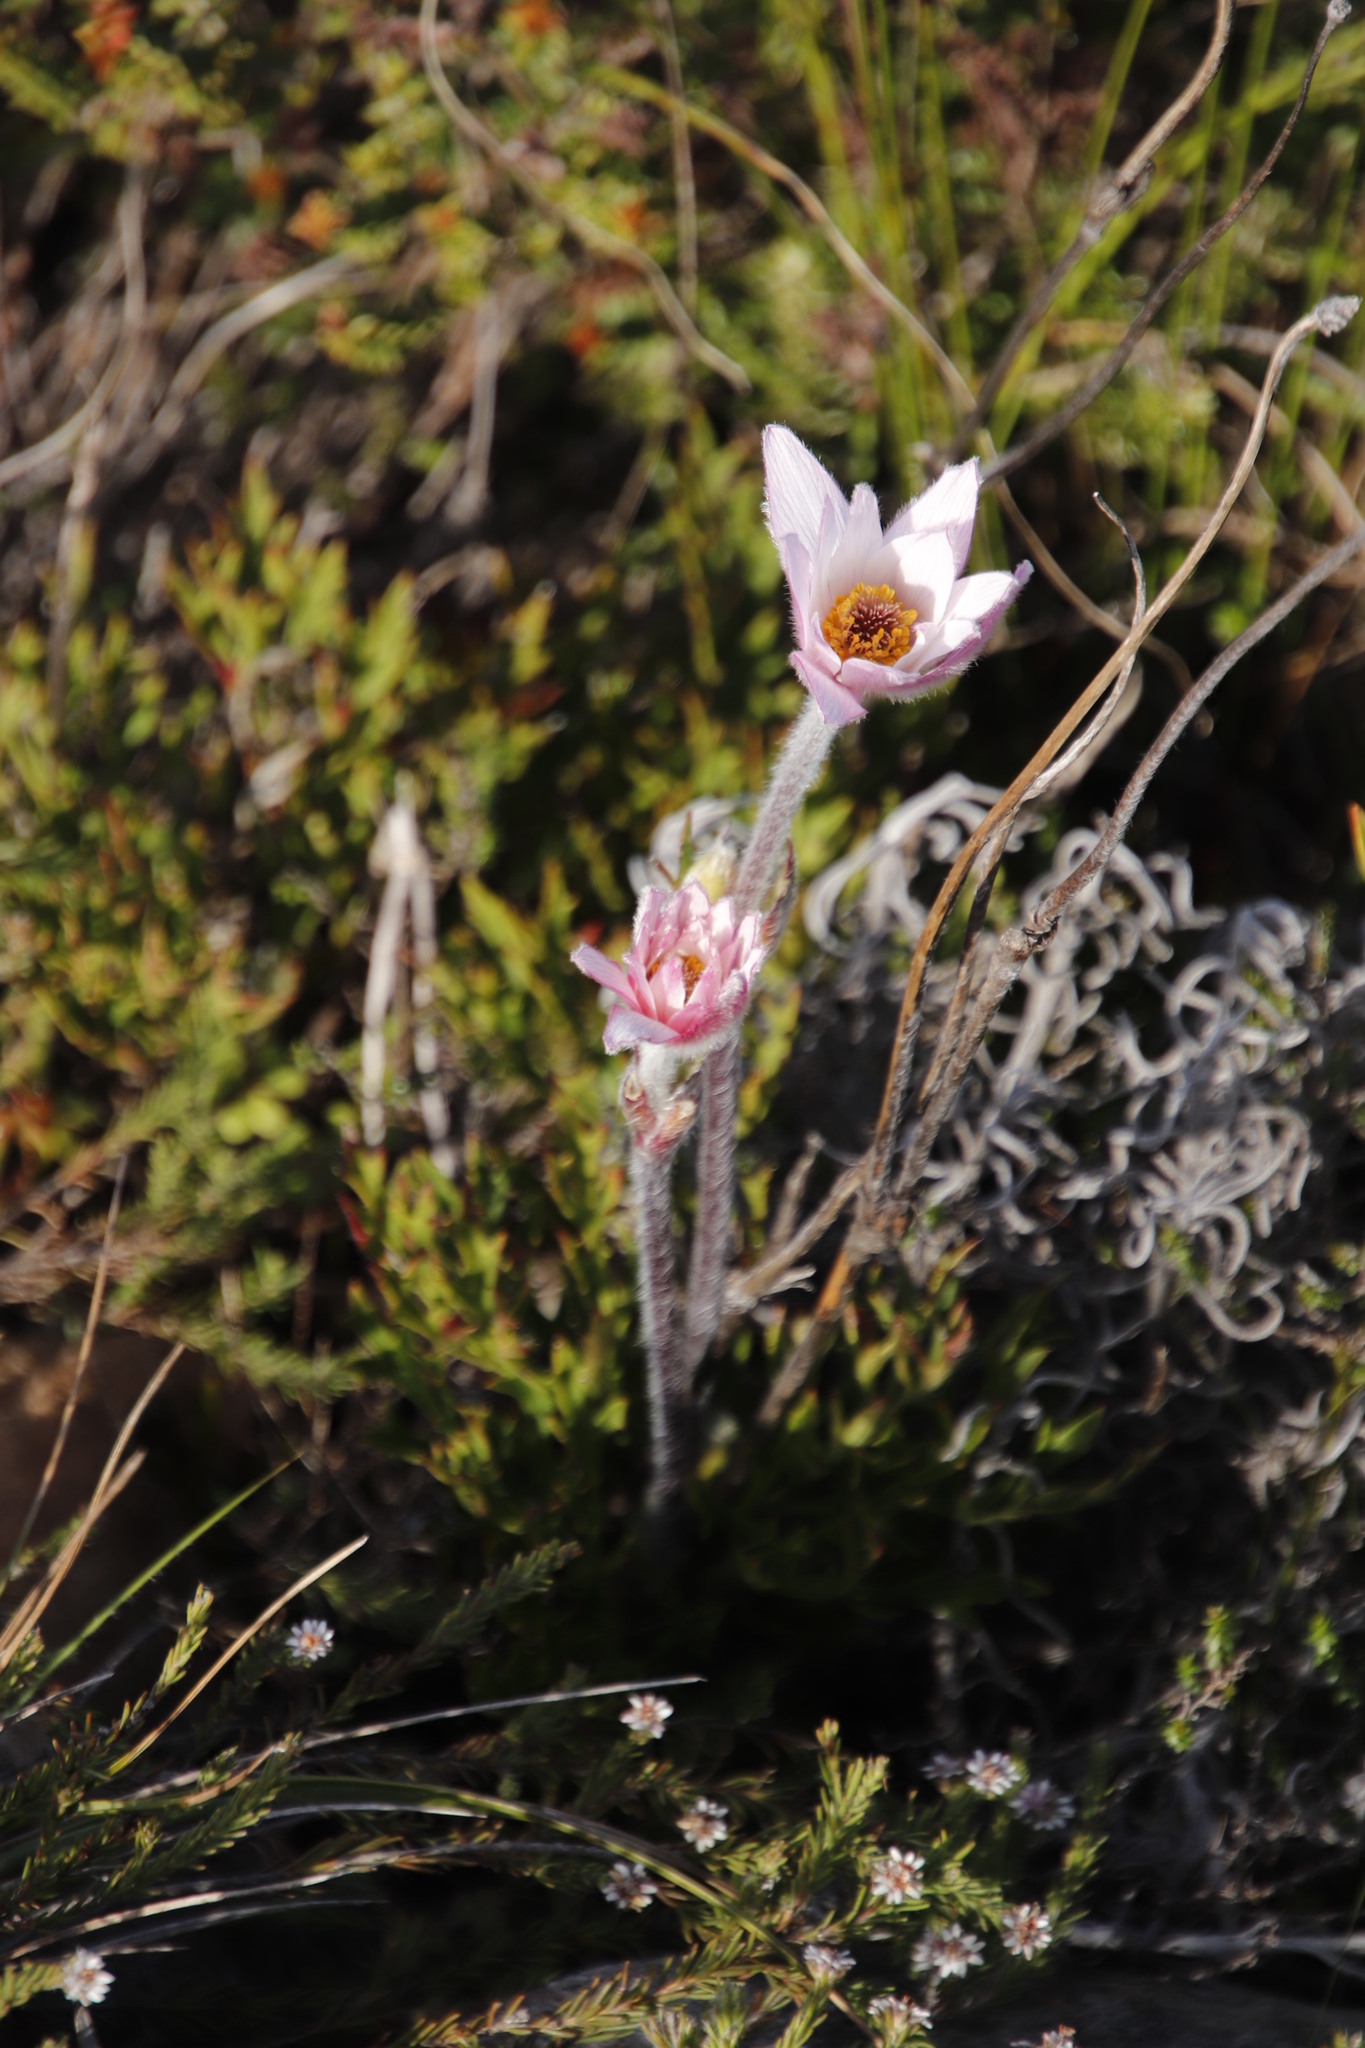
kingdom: Plantae
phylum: Tracheophyta
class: Magnoliopsida
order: Ranunculales
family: Ranunculaceae
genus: Knowltonia
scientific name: Knowltonia tenuifolia
